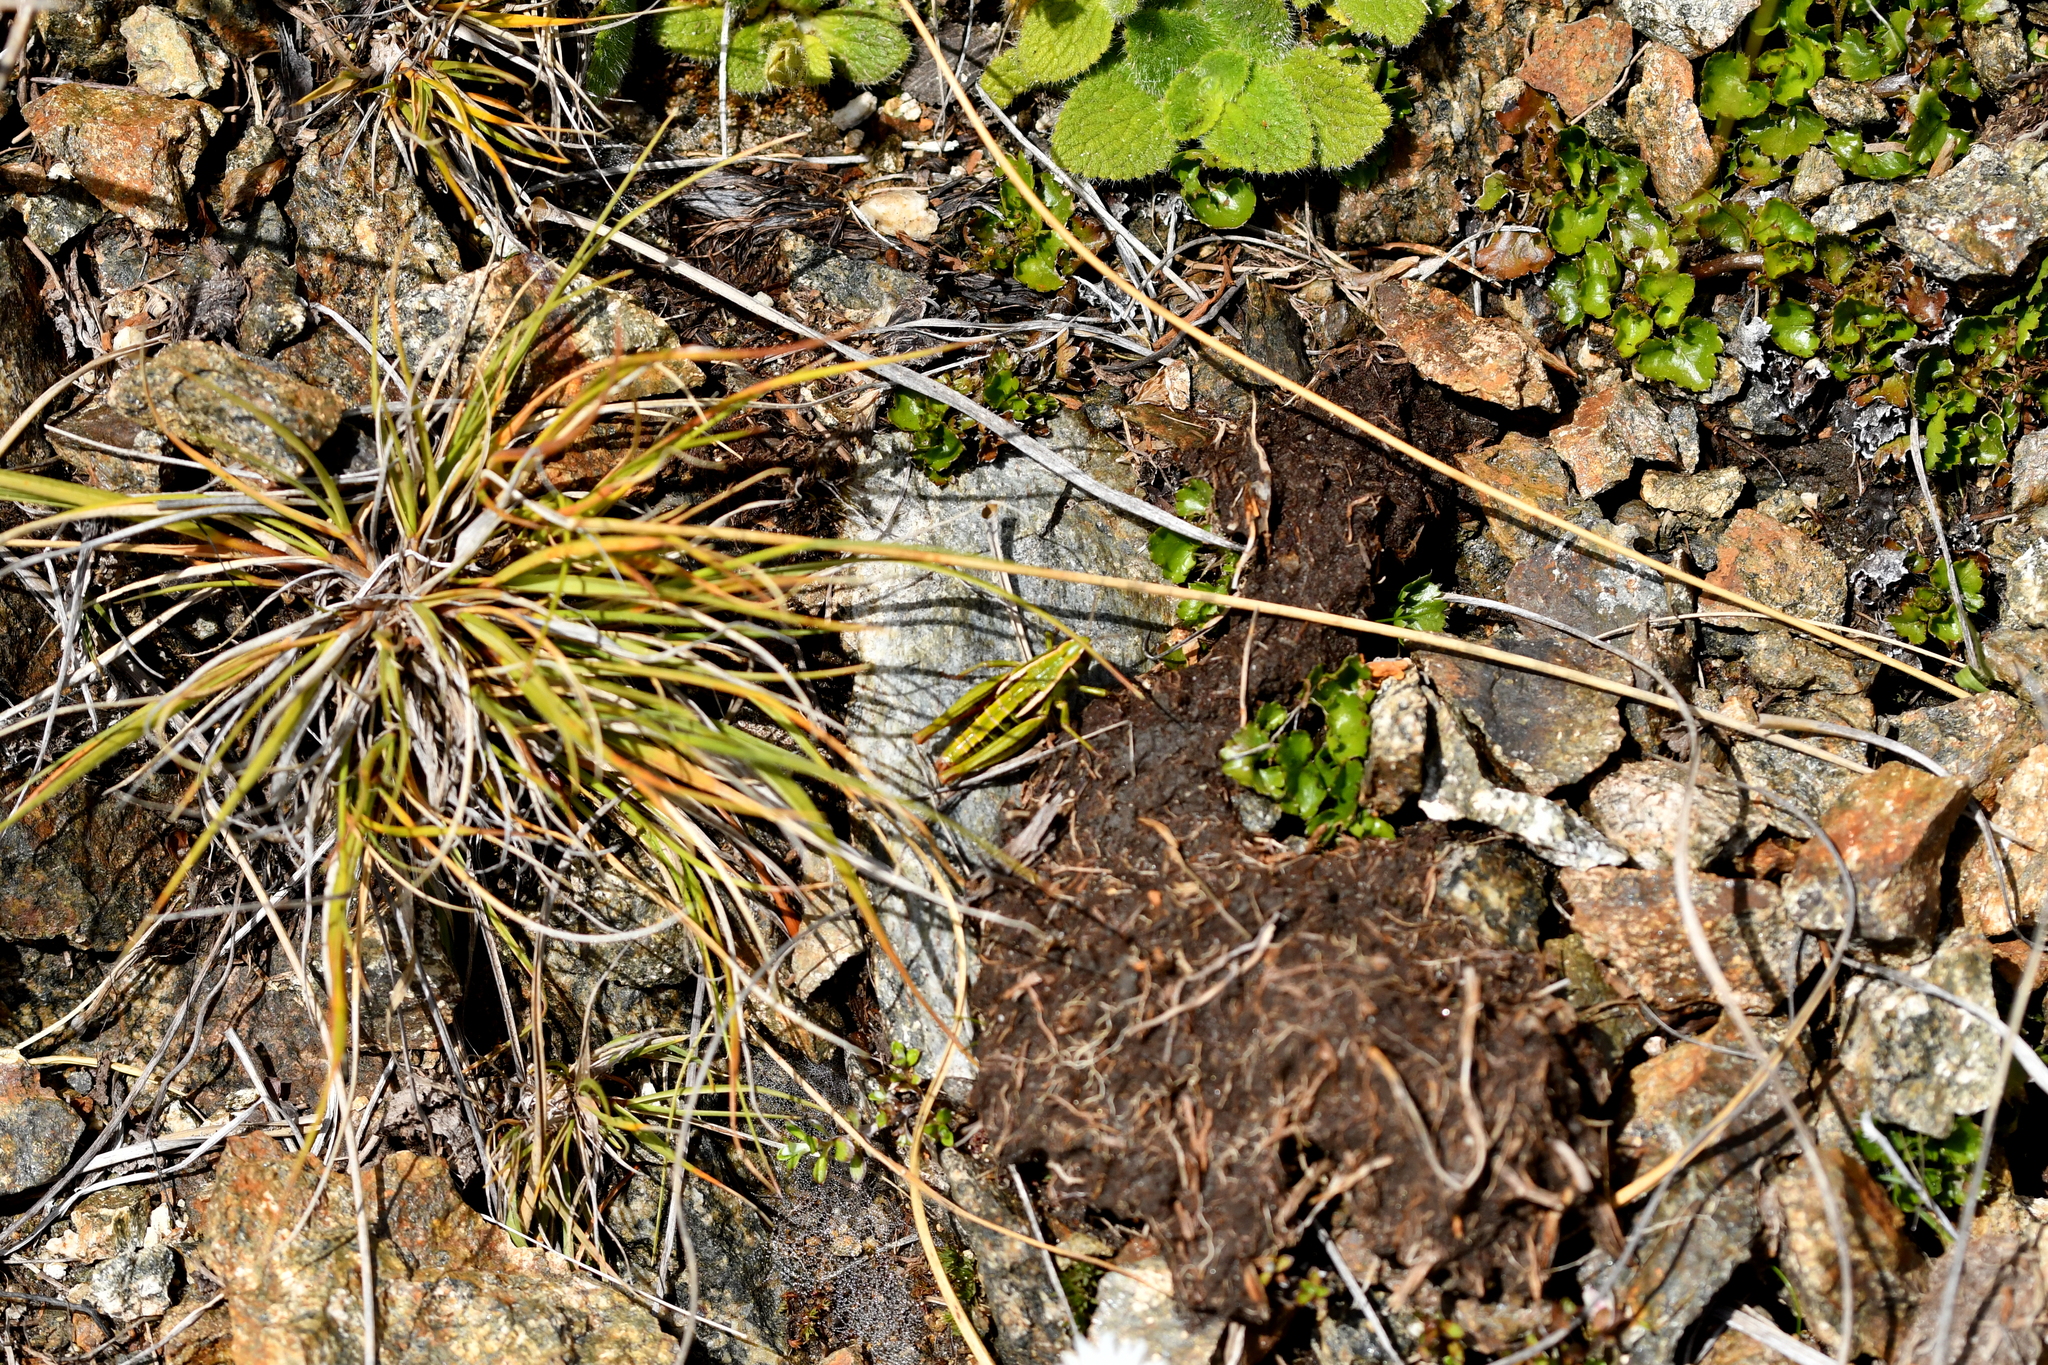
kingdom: Animalia
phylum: Arthropoda
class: Insecta
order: Orthoptera
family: Acrididae
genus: Sigaus
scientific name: Sigaus
